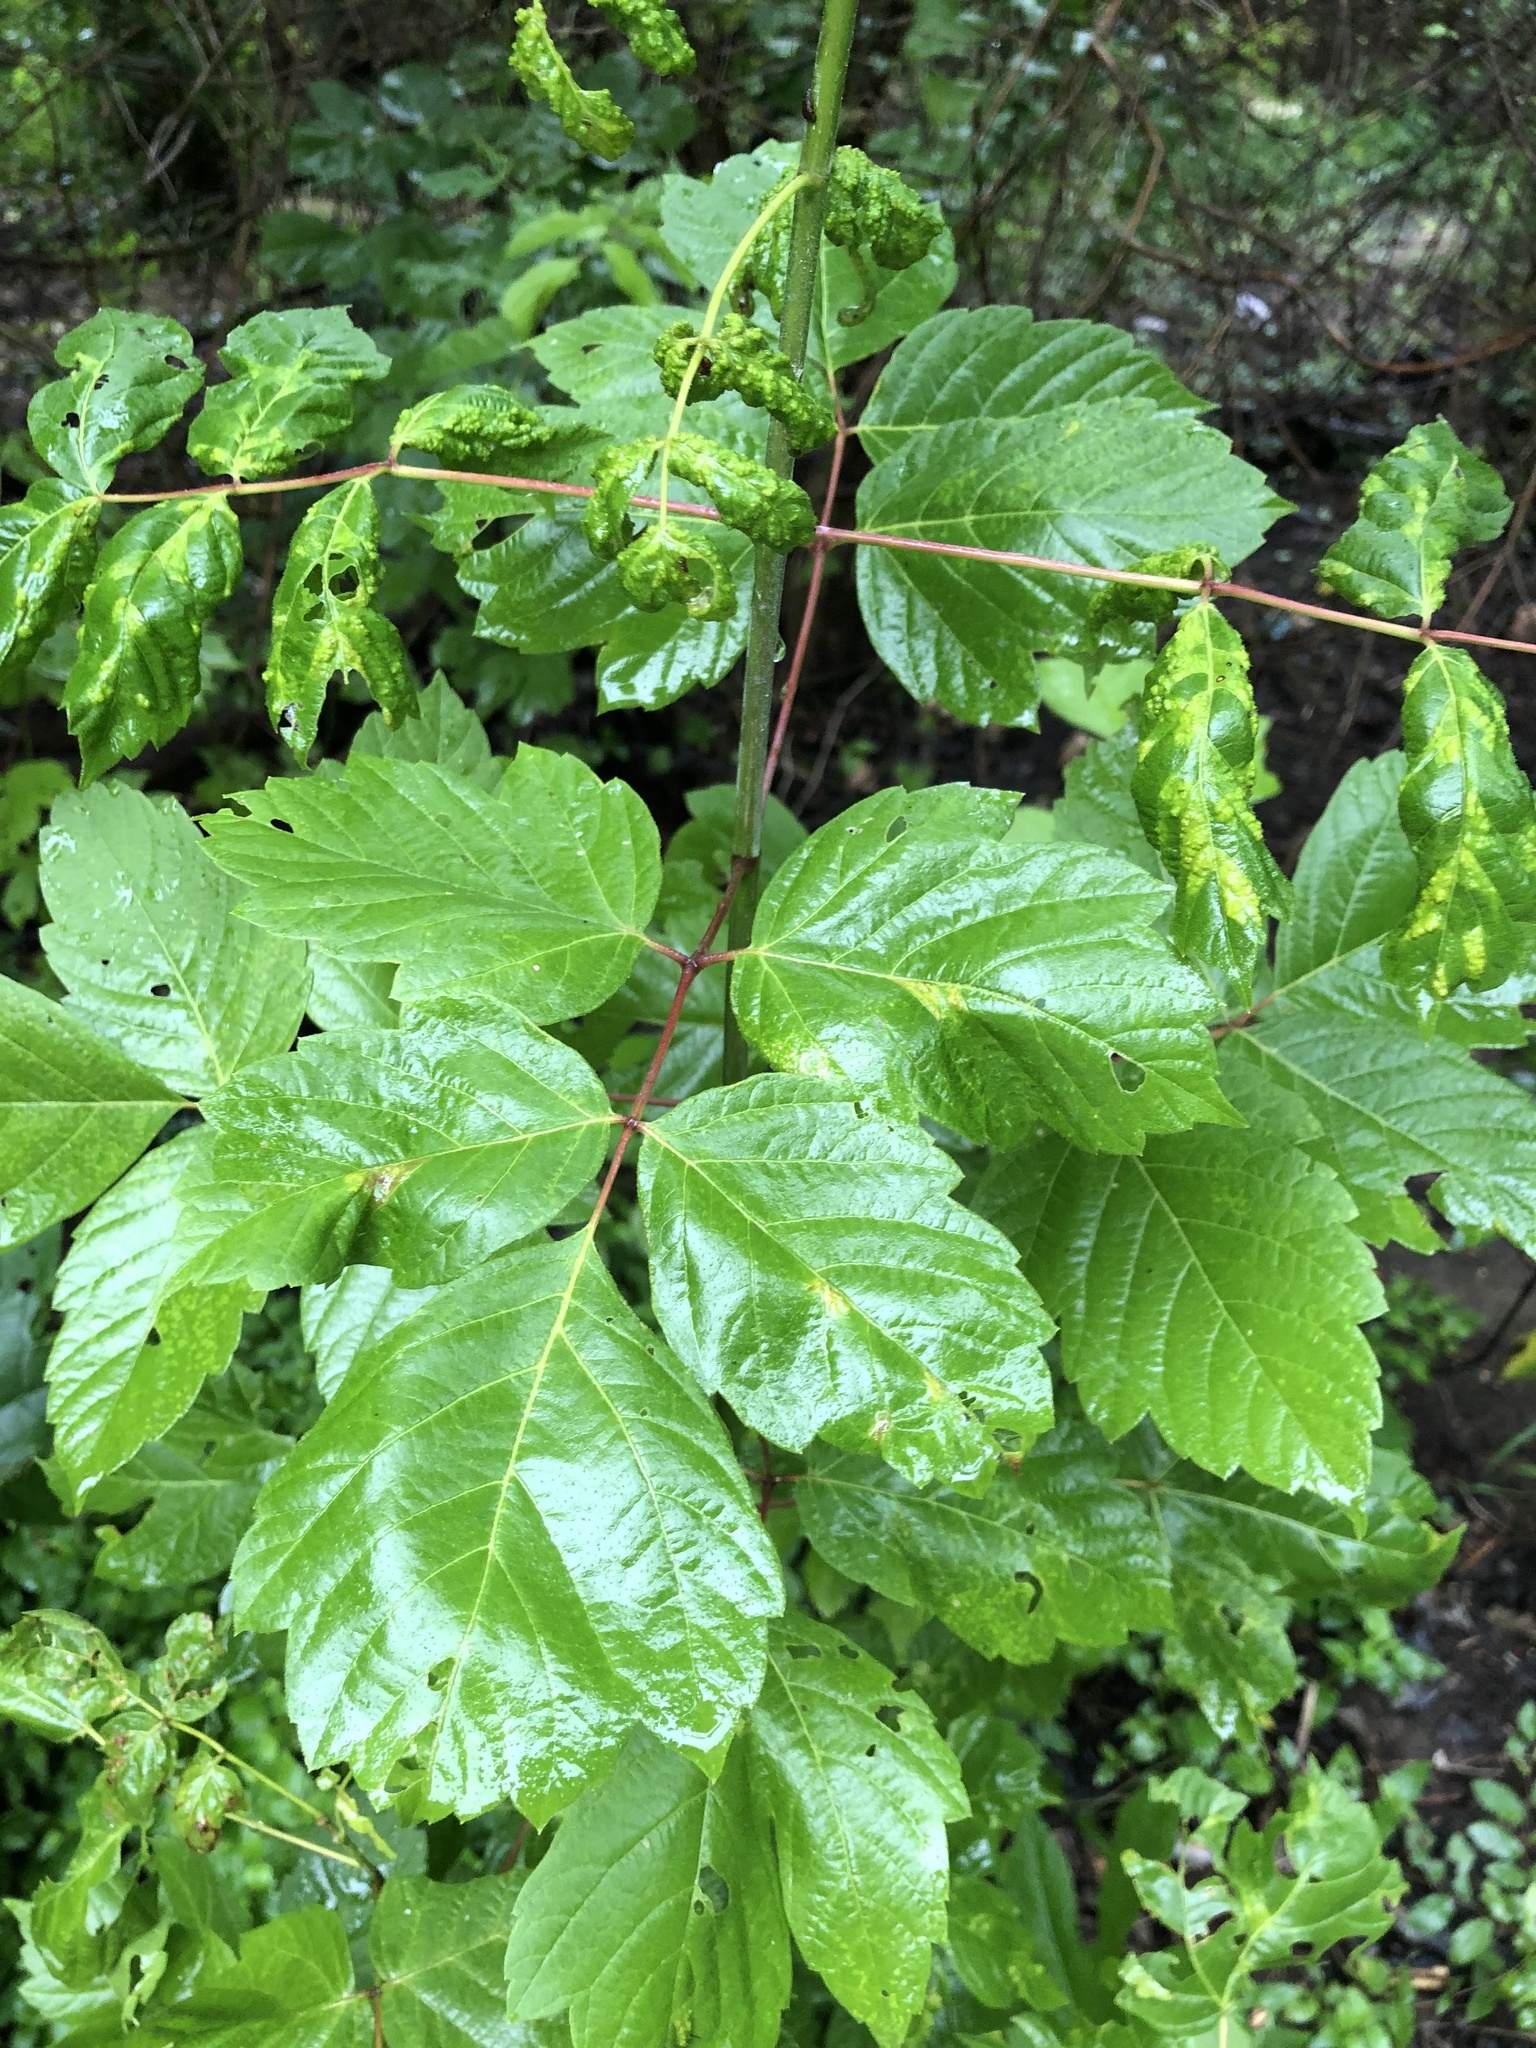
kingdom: Plantae
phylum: Tracheophyta
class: Magnoliopsida
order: Sapindales
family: Sapindaceae
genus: Acer
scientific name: Acer negundo
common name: Ashleaf maple
